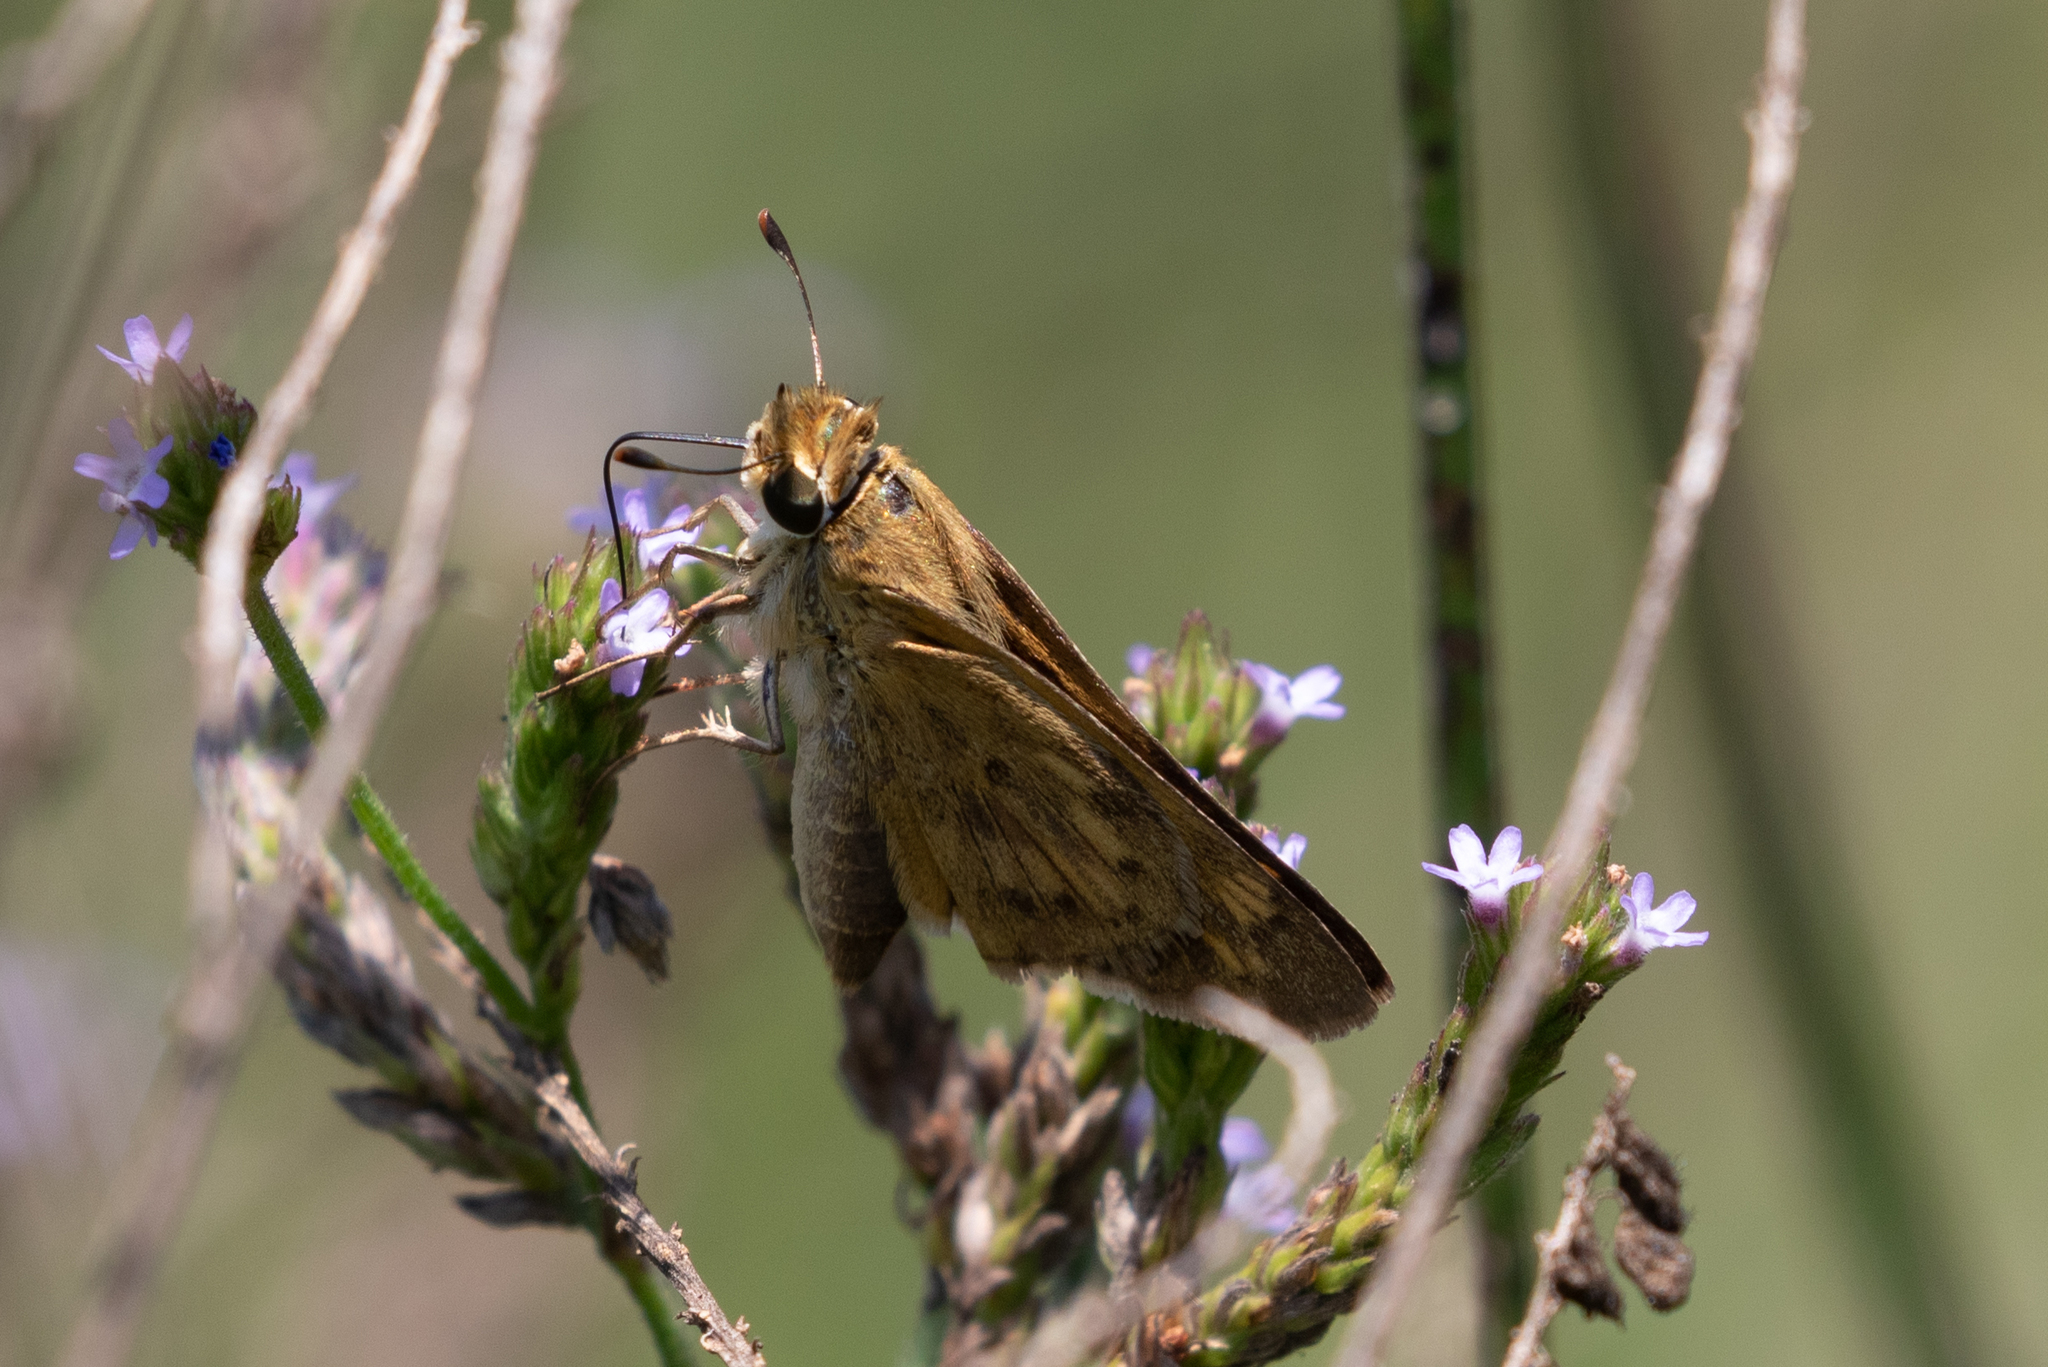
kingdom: Animalia
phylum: Arthropoda
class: Insecta
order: Lepidoptera
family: Hesperiidae
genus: Hylephila
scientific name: Hylephila phyleus
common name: Fiery skipper
